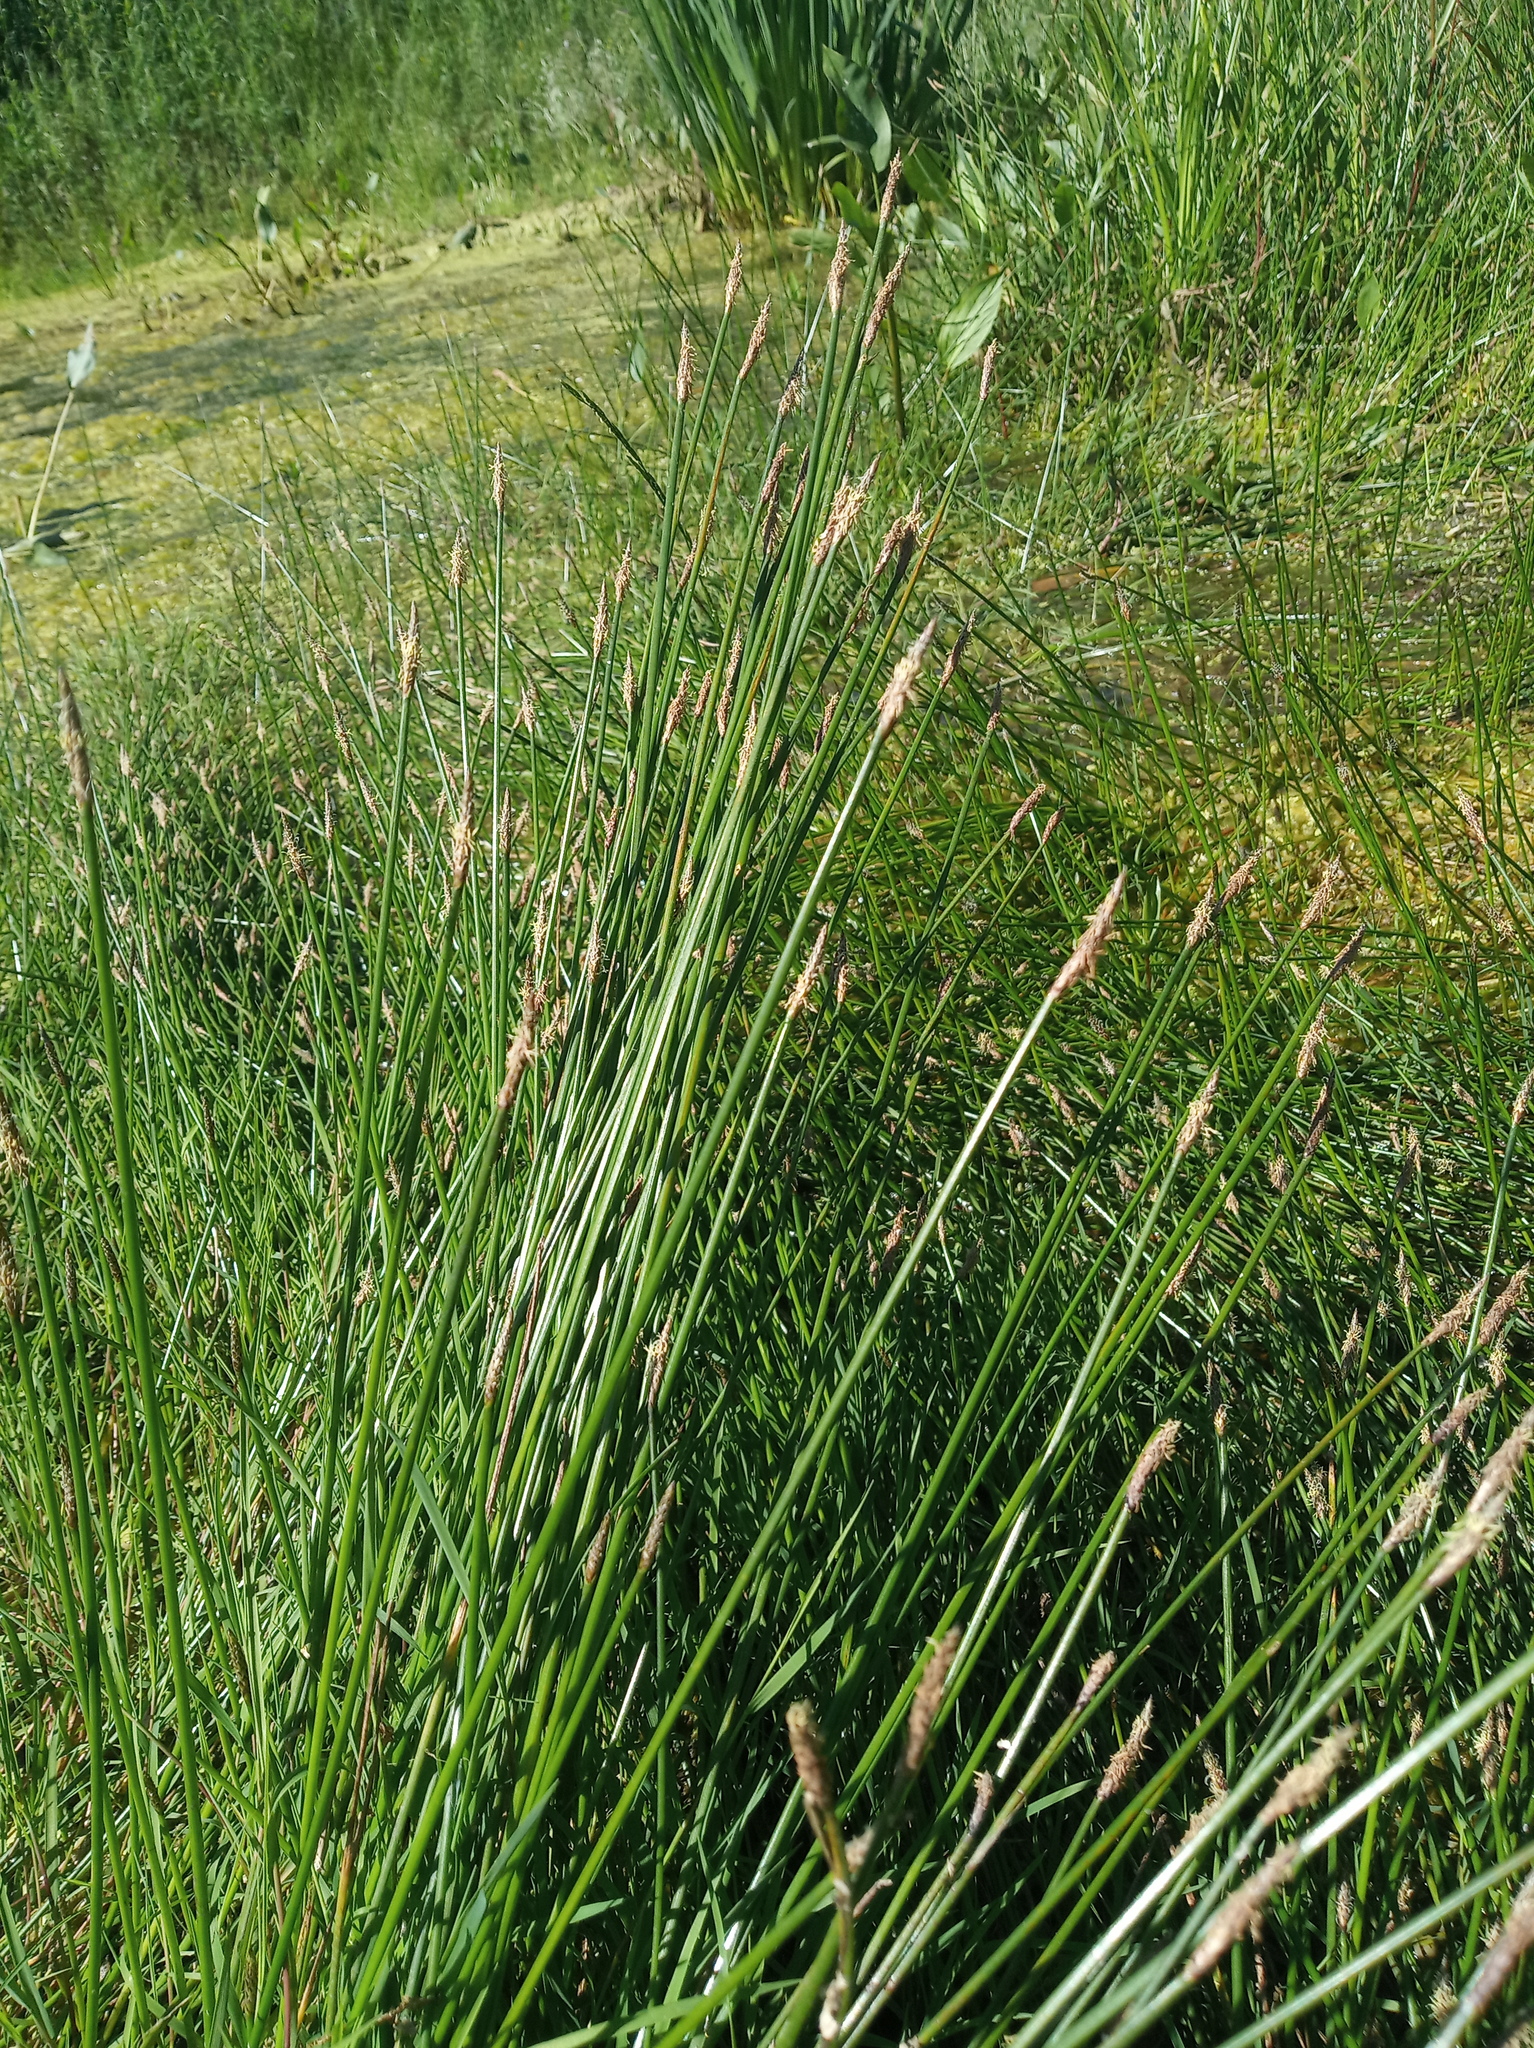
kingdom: Plantae
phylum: Tracheophyta
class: Liliopsida
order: Poales
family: Cyperaceae
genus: Eleocharis
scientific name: Eleocharis palustris
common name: Common spike-rush
